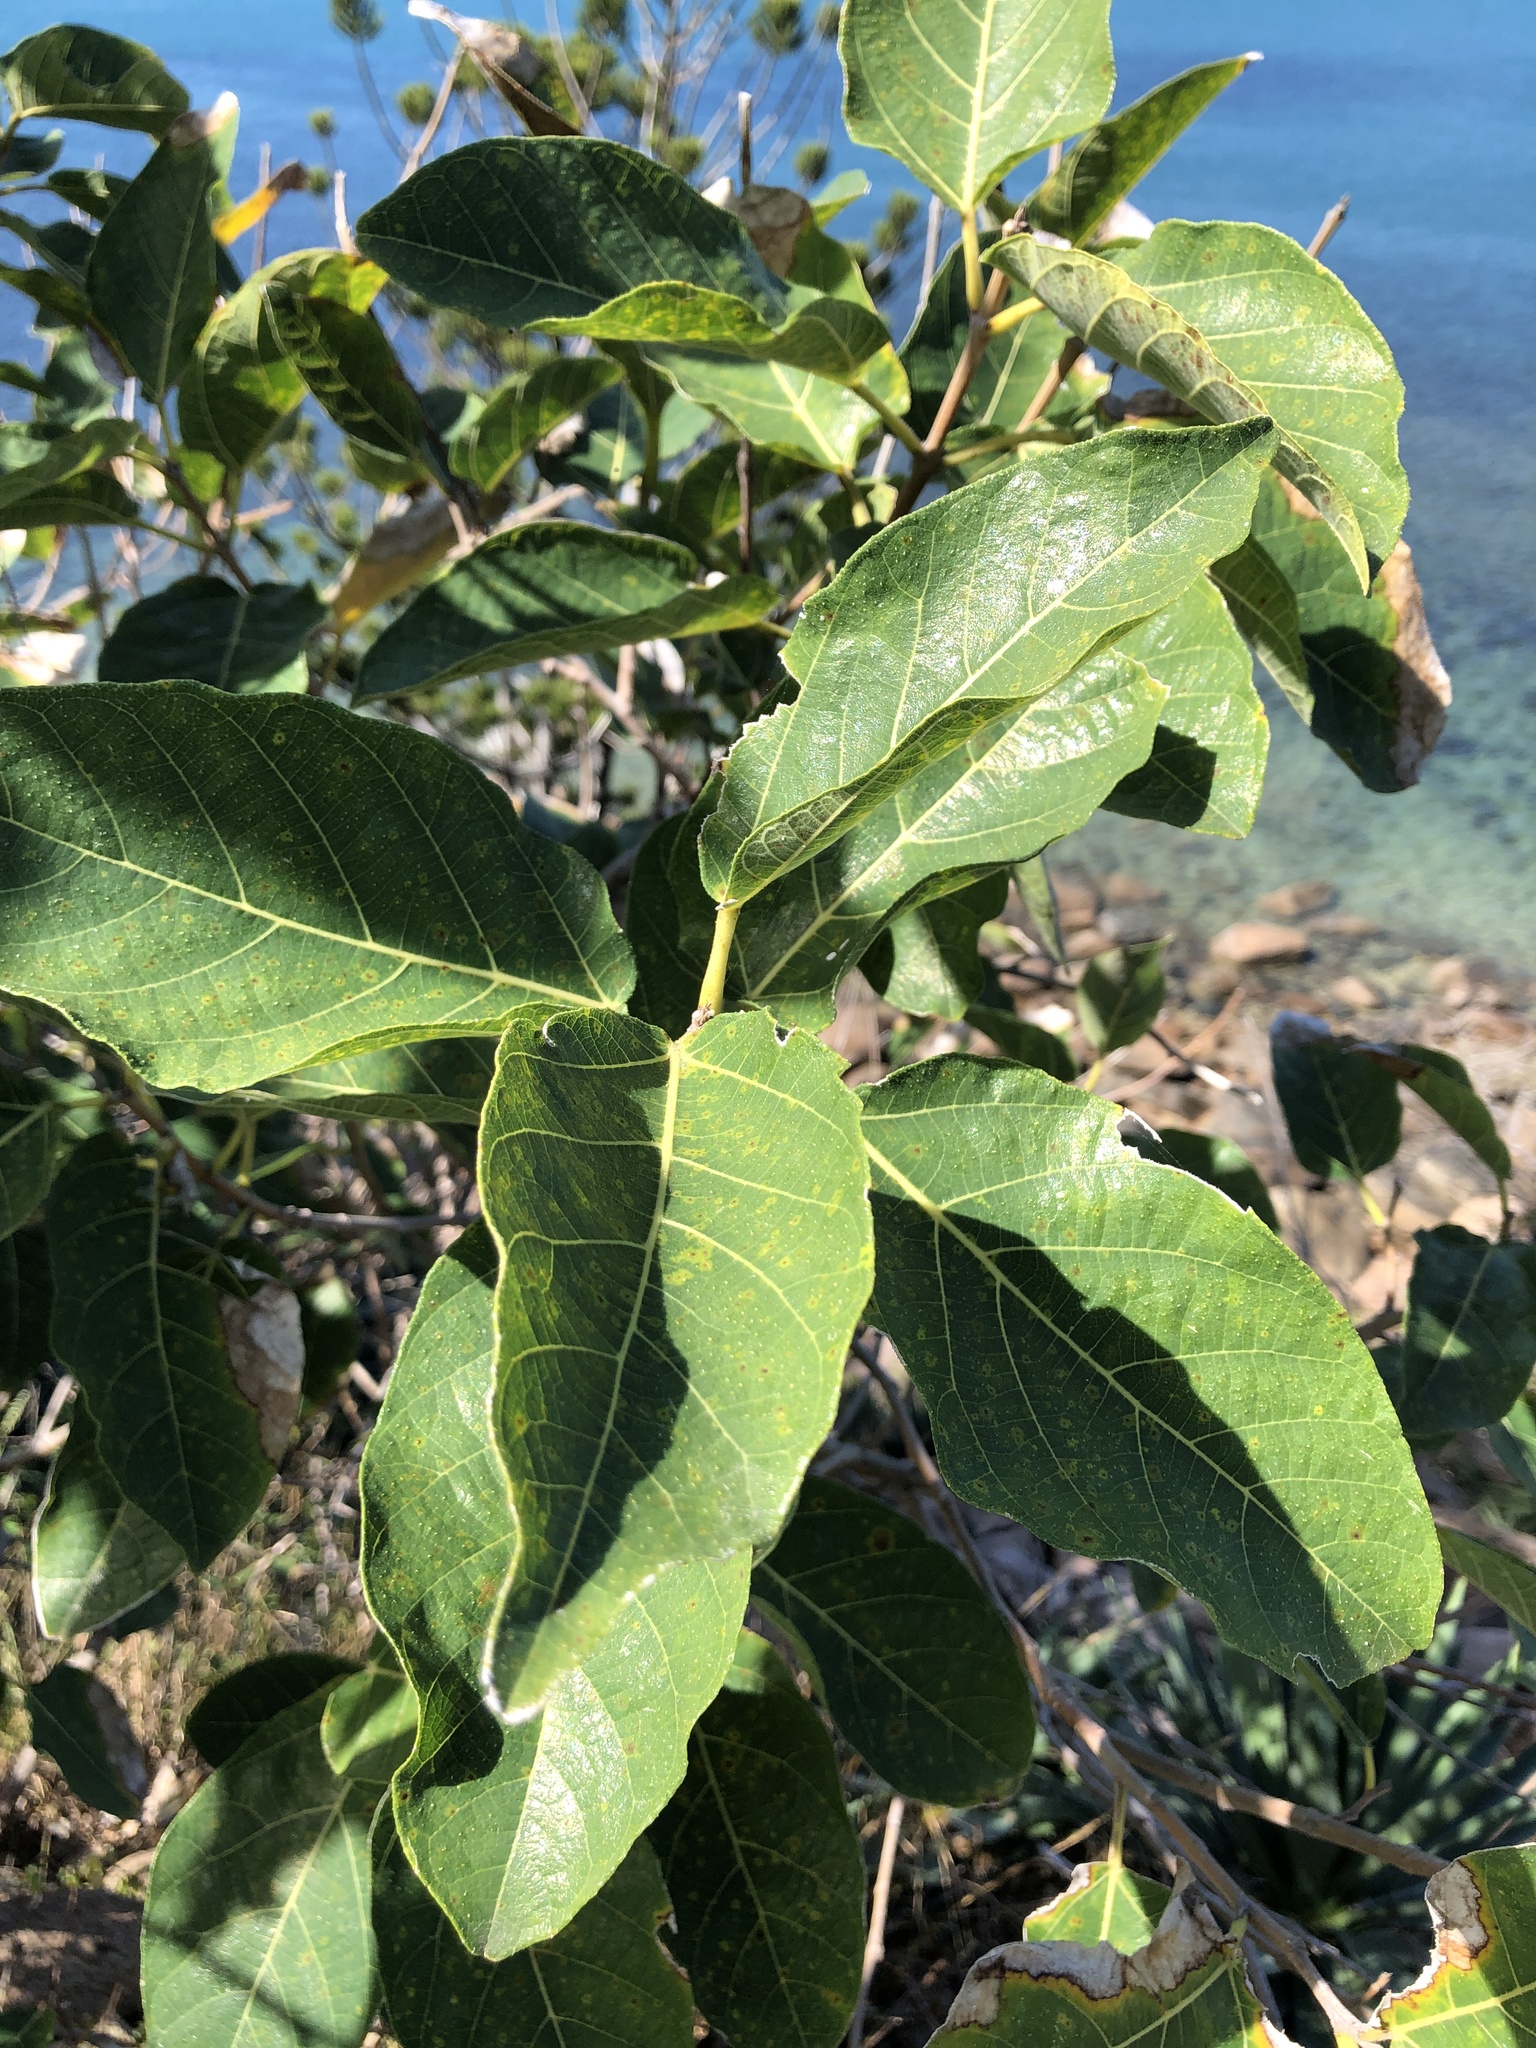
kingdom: Plantae
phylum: Tracheophyta
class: Magnoliopsida
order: Rosales
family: Moraceae
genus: Ficus
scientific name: Ficus opposita
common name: Figwood
